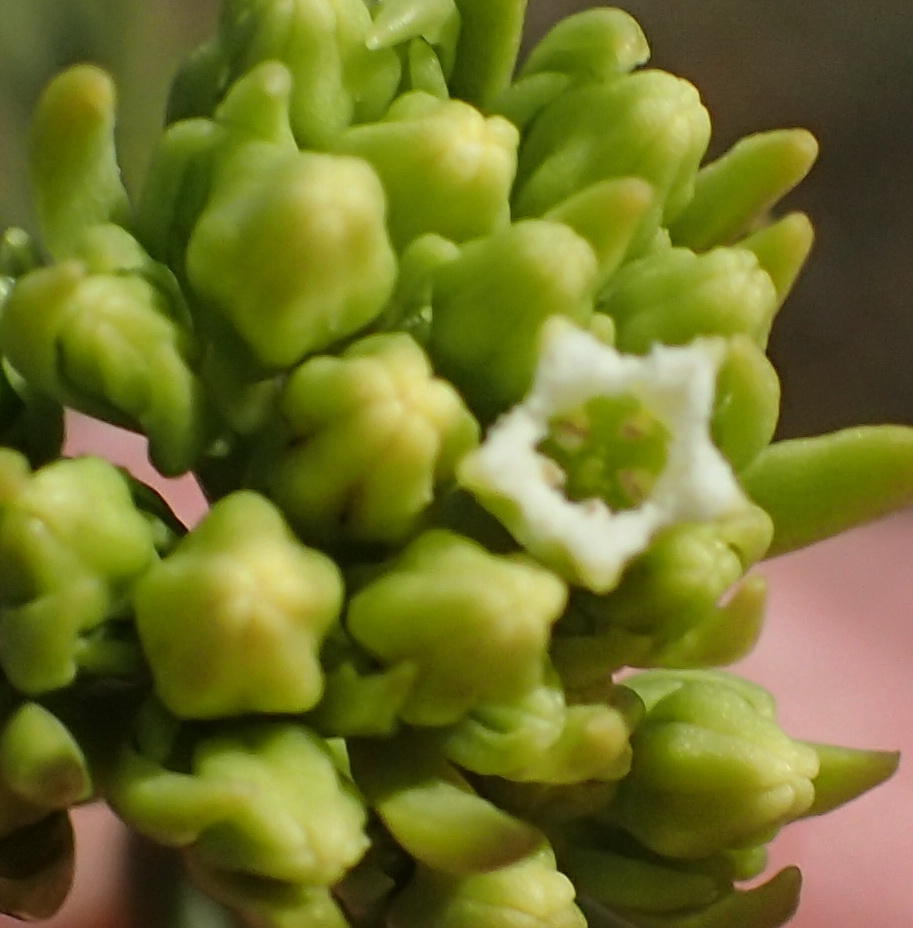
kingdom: Plantae
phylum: Tracheophyta
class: Magnoliopsida
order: Santalales
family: Thesiaceae
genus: Thesium
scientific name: Thesium strictum
